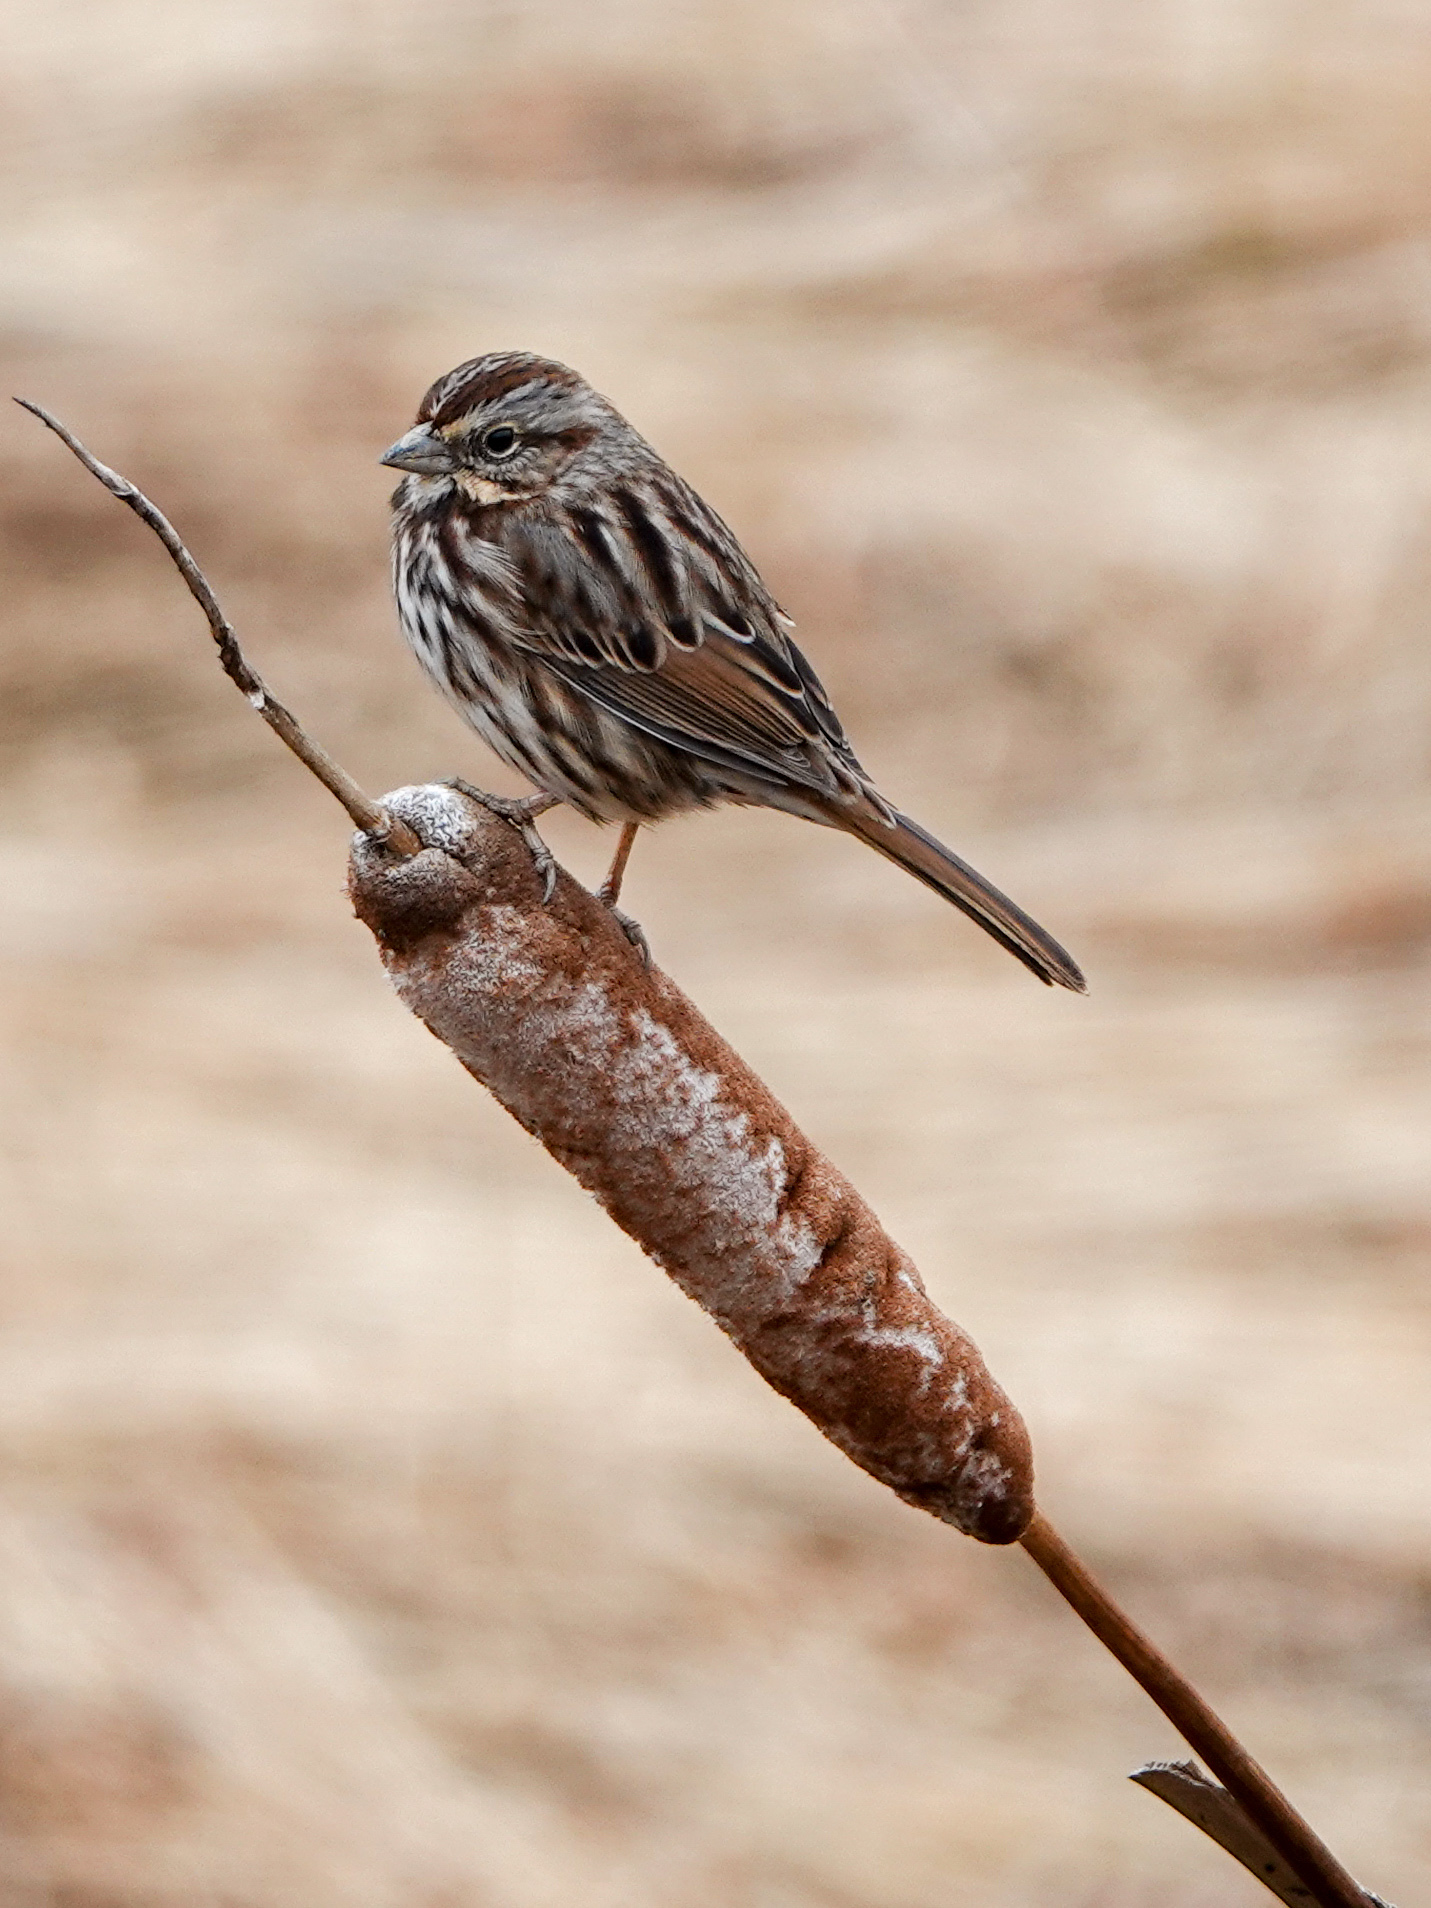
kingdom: Animalia
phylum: Chordata
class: Aves
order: Passeriformes
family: Passerellidae
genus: Melospiza
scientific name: Melospiza melodia
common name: Song sparrow
